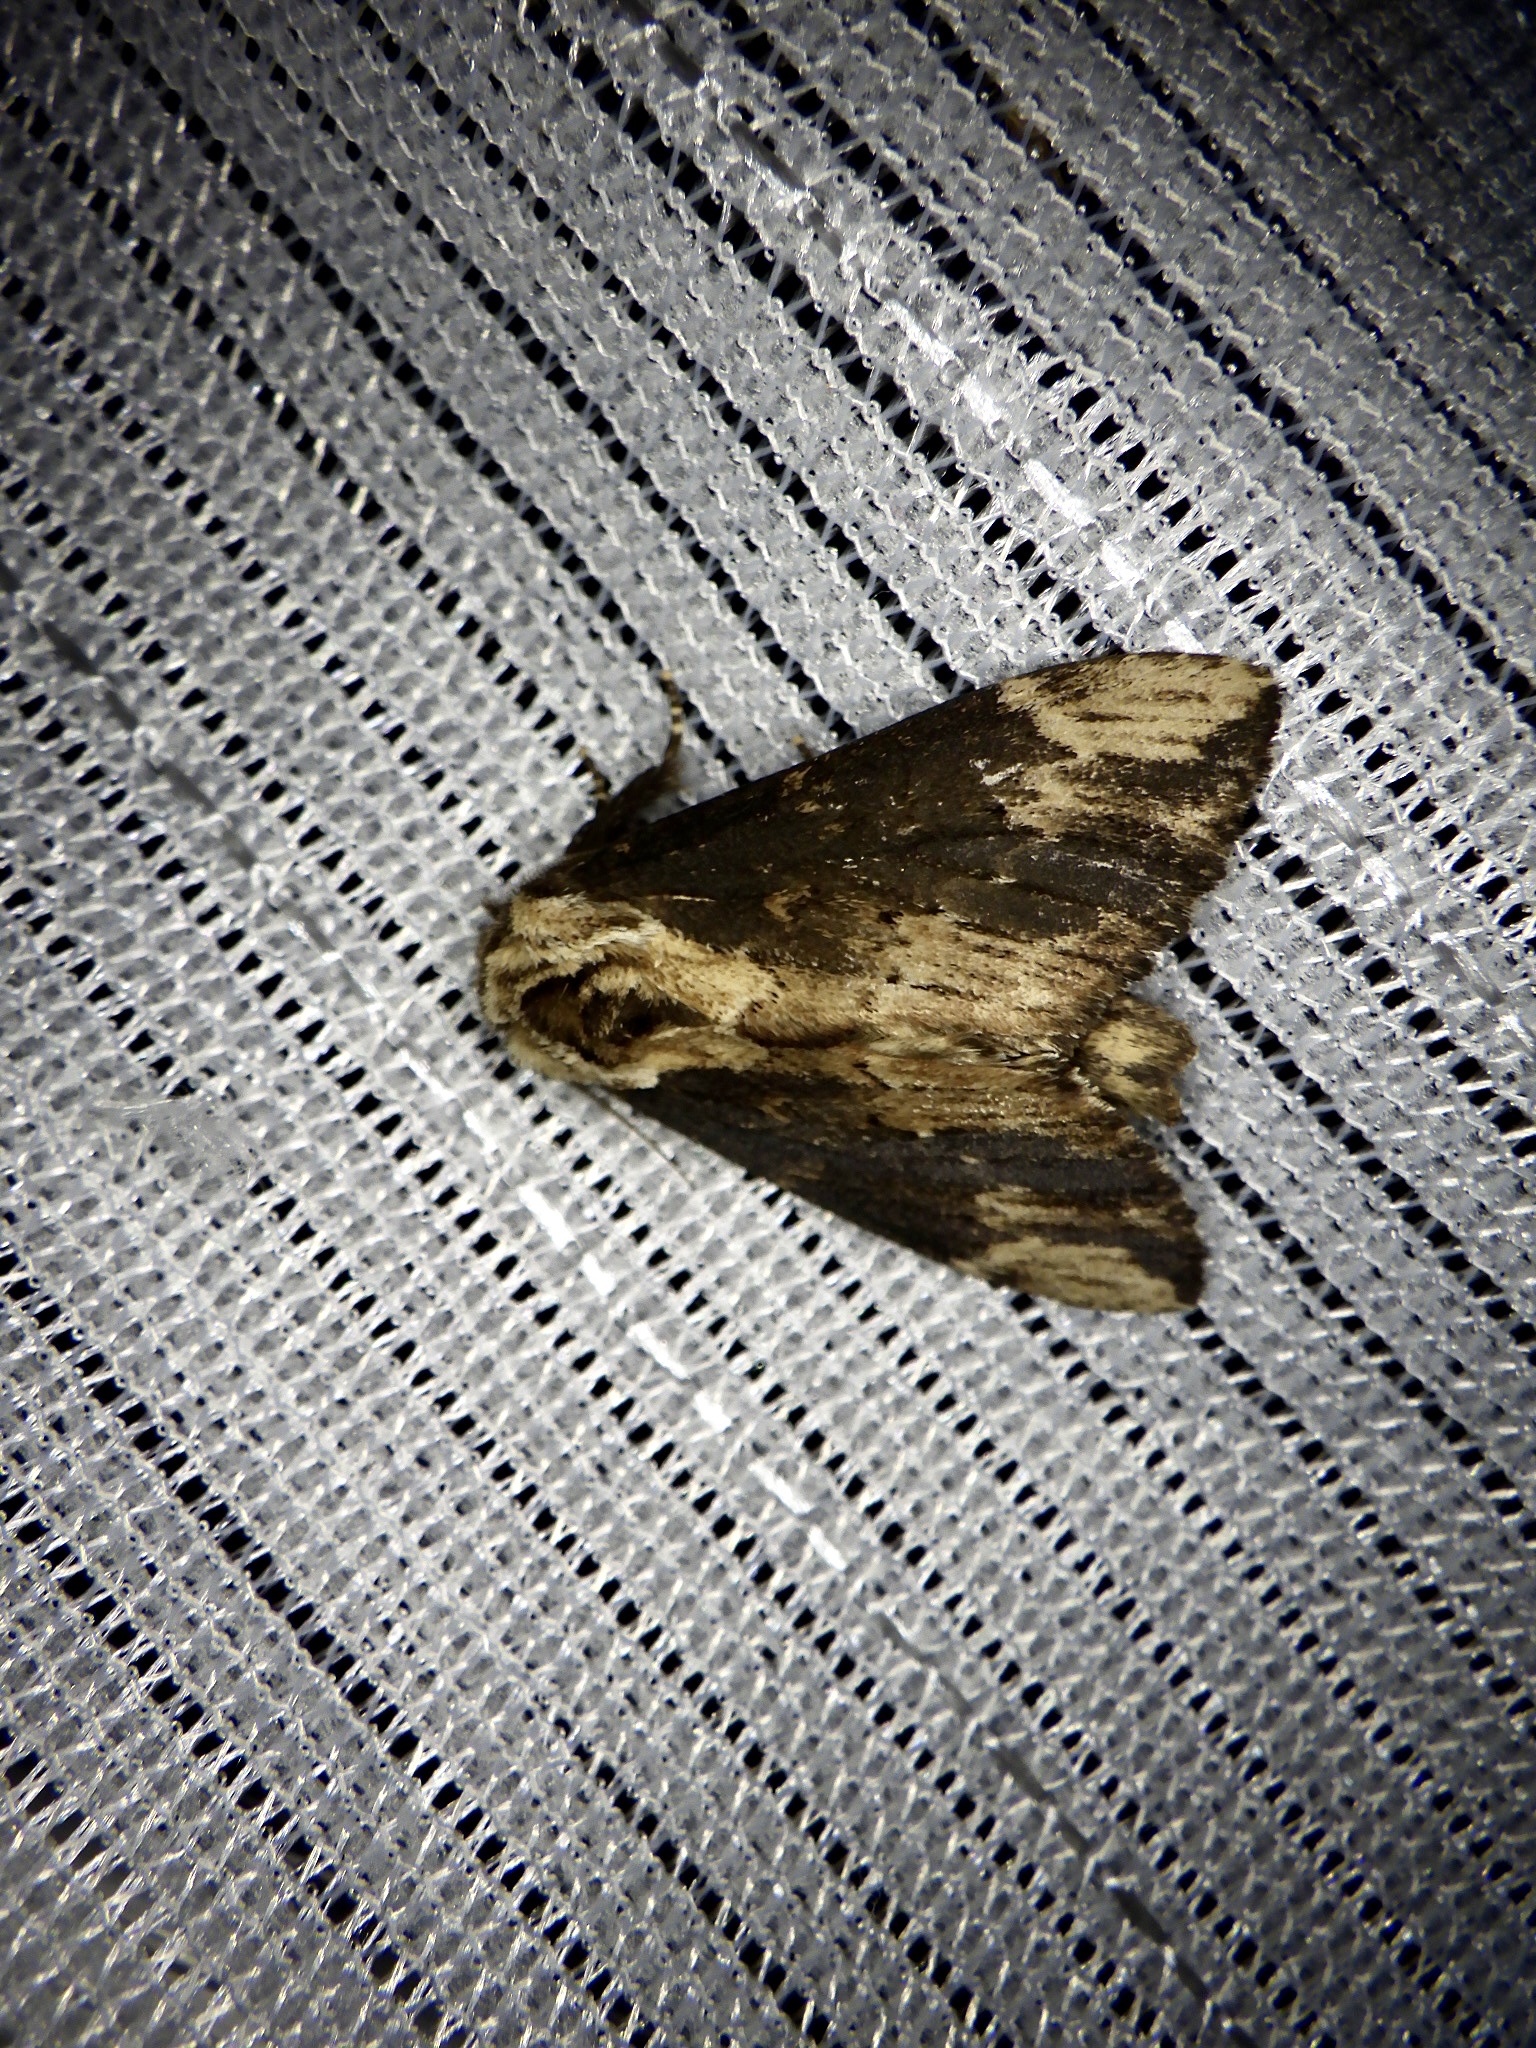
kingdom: Animalia
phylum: Arthropoda
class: Insecta
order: Lepidoptera
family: Notodontidae
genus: Hiradonta
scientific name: Hiradonta takaonis
